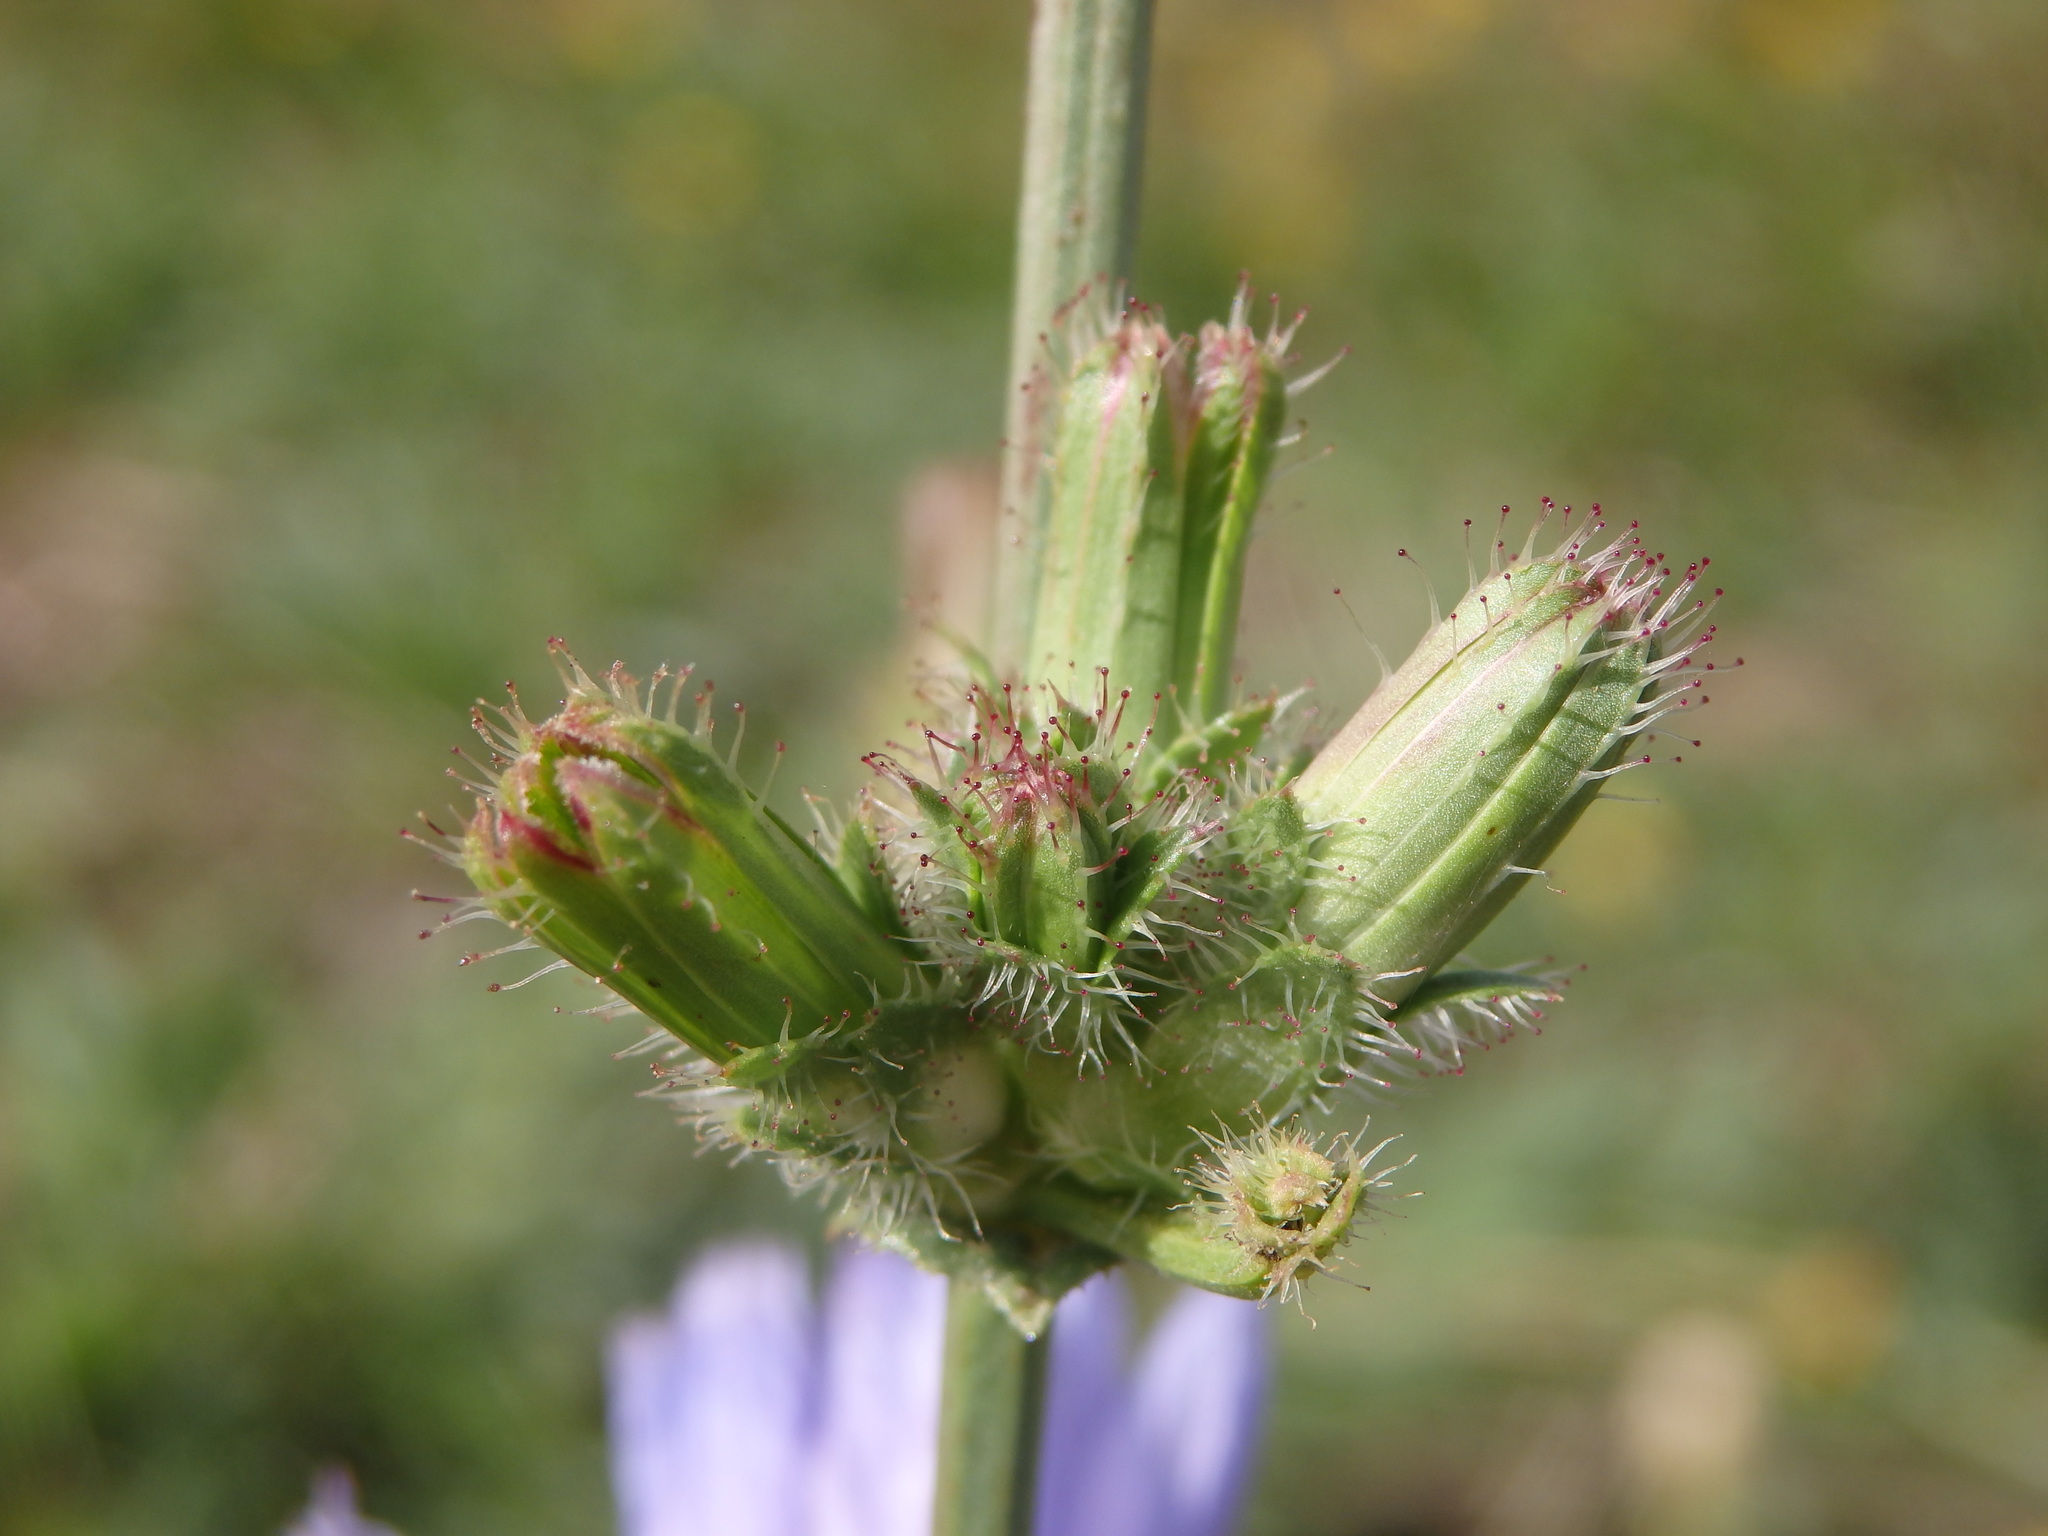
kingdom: Plantae
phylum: Tracheophyta
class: Magnoliopsida
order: Asterales
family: Asteraceae
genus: Cichorium
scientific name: Cichorium intybus
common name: Chicory
